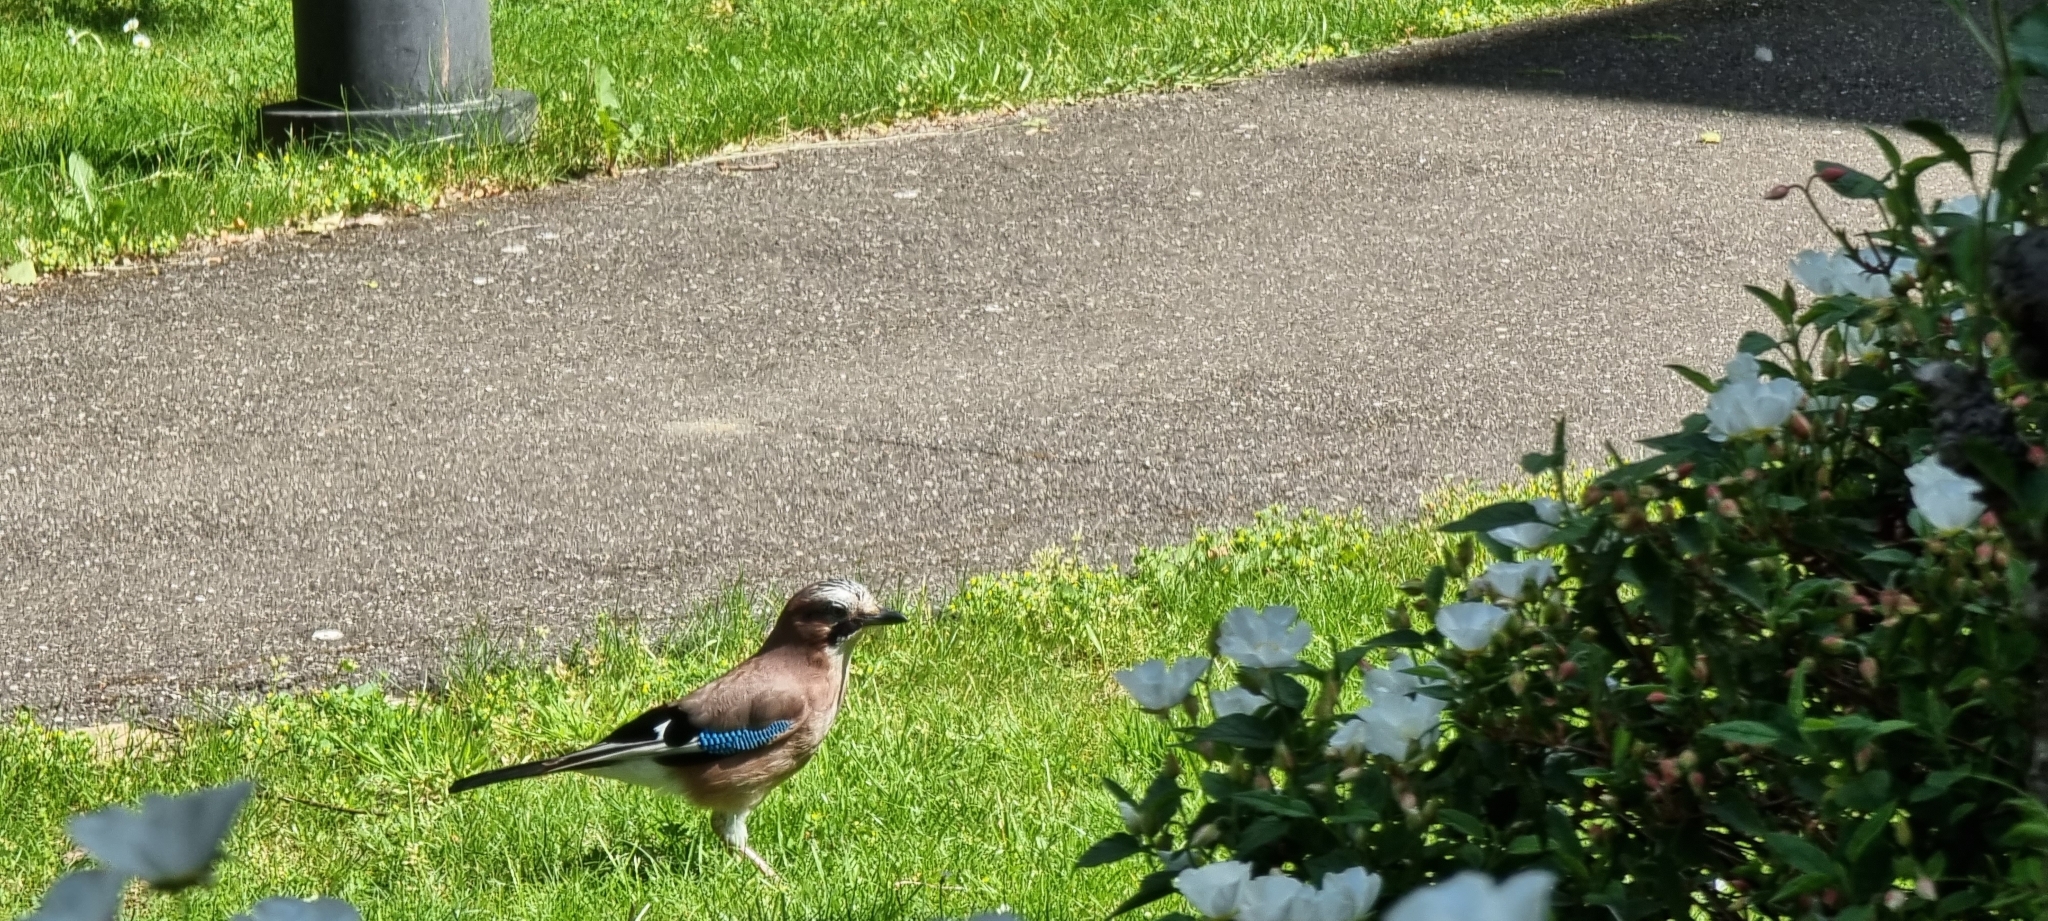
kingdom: Animalia
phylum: Chordata
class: Aves
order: Passeriformes
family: Corvidae
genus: Garrulus
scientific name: Garrulus glandarius
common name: Eurasian jay
